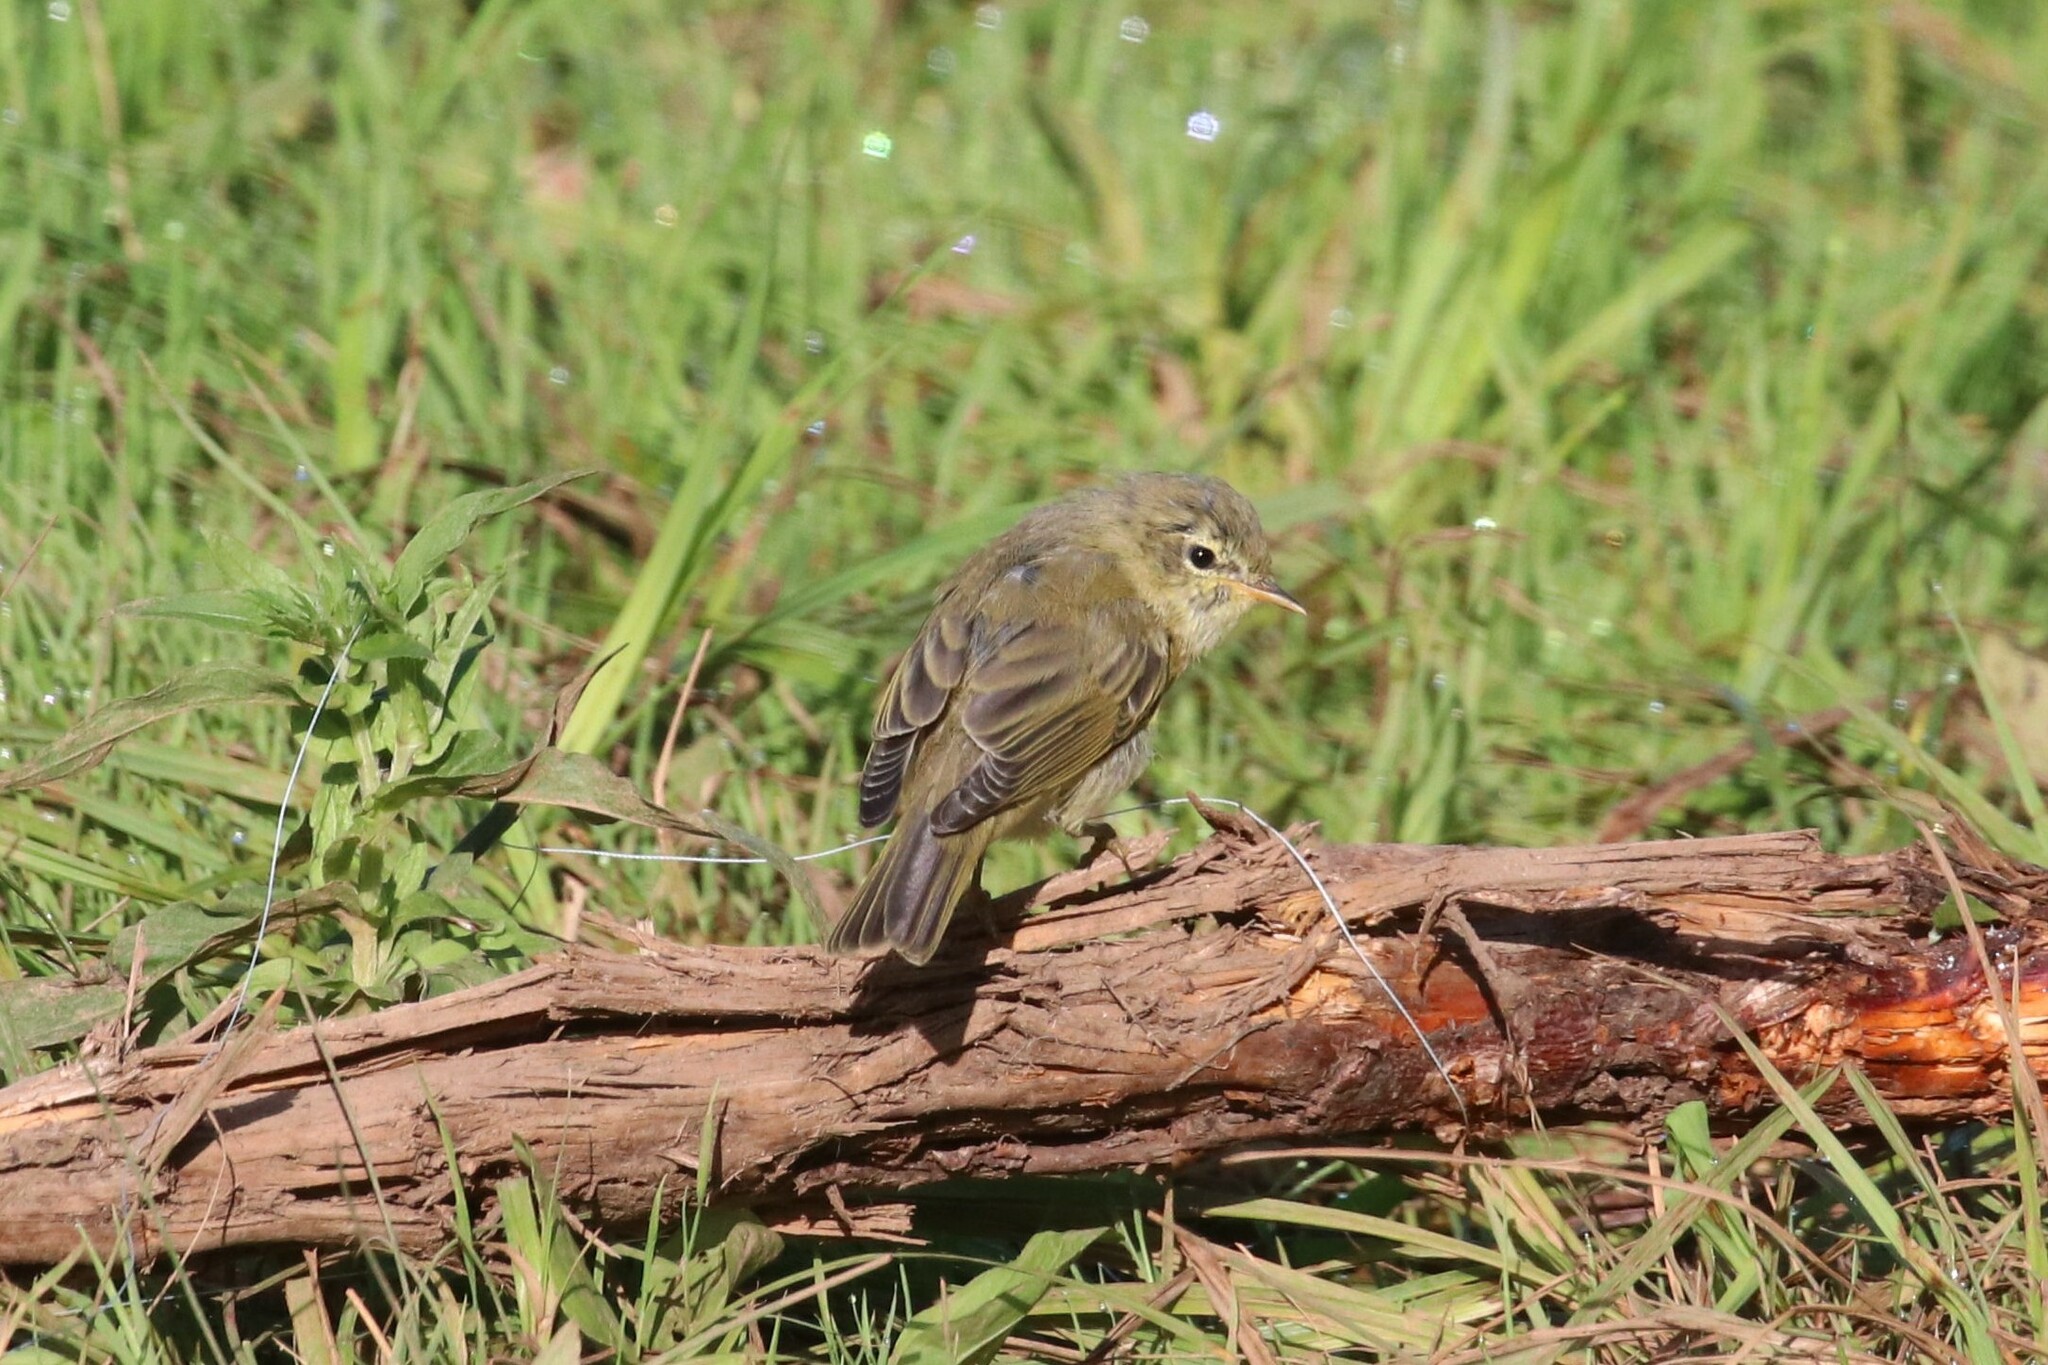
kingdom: Animalia
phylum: Chordata
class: Aves
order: Passeriformes
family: Phylloscopidae
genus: Phylloscopus
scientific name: Phylloscopus trochilus
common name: Willow warbler
